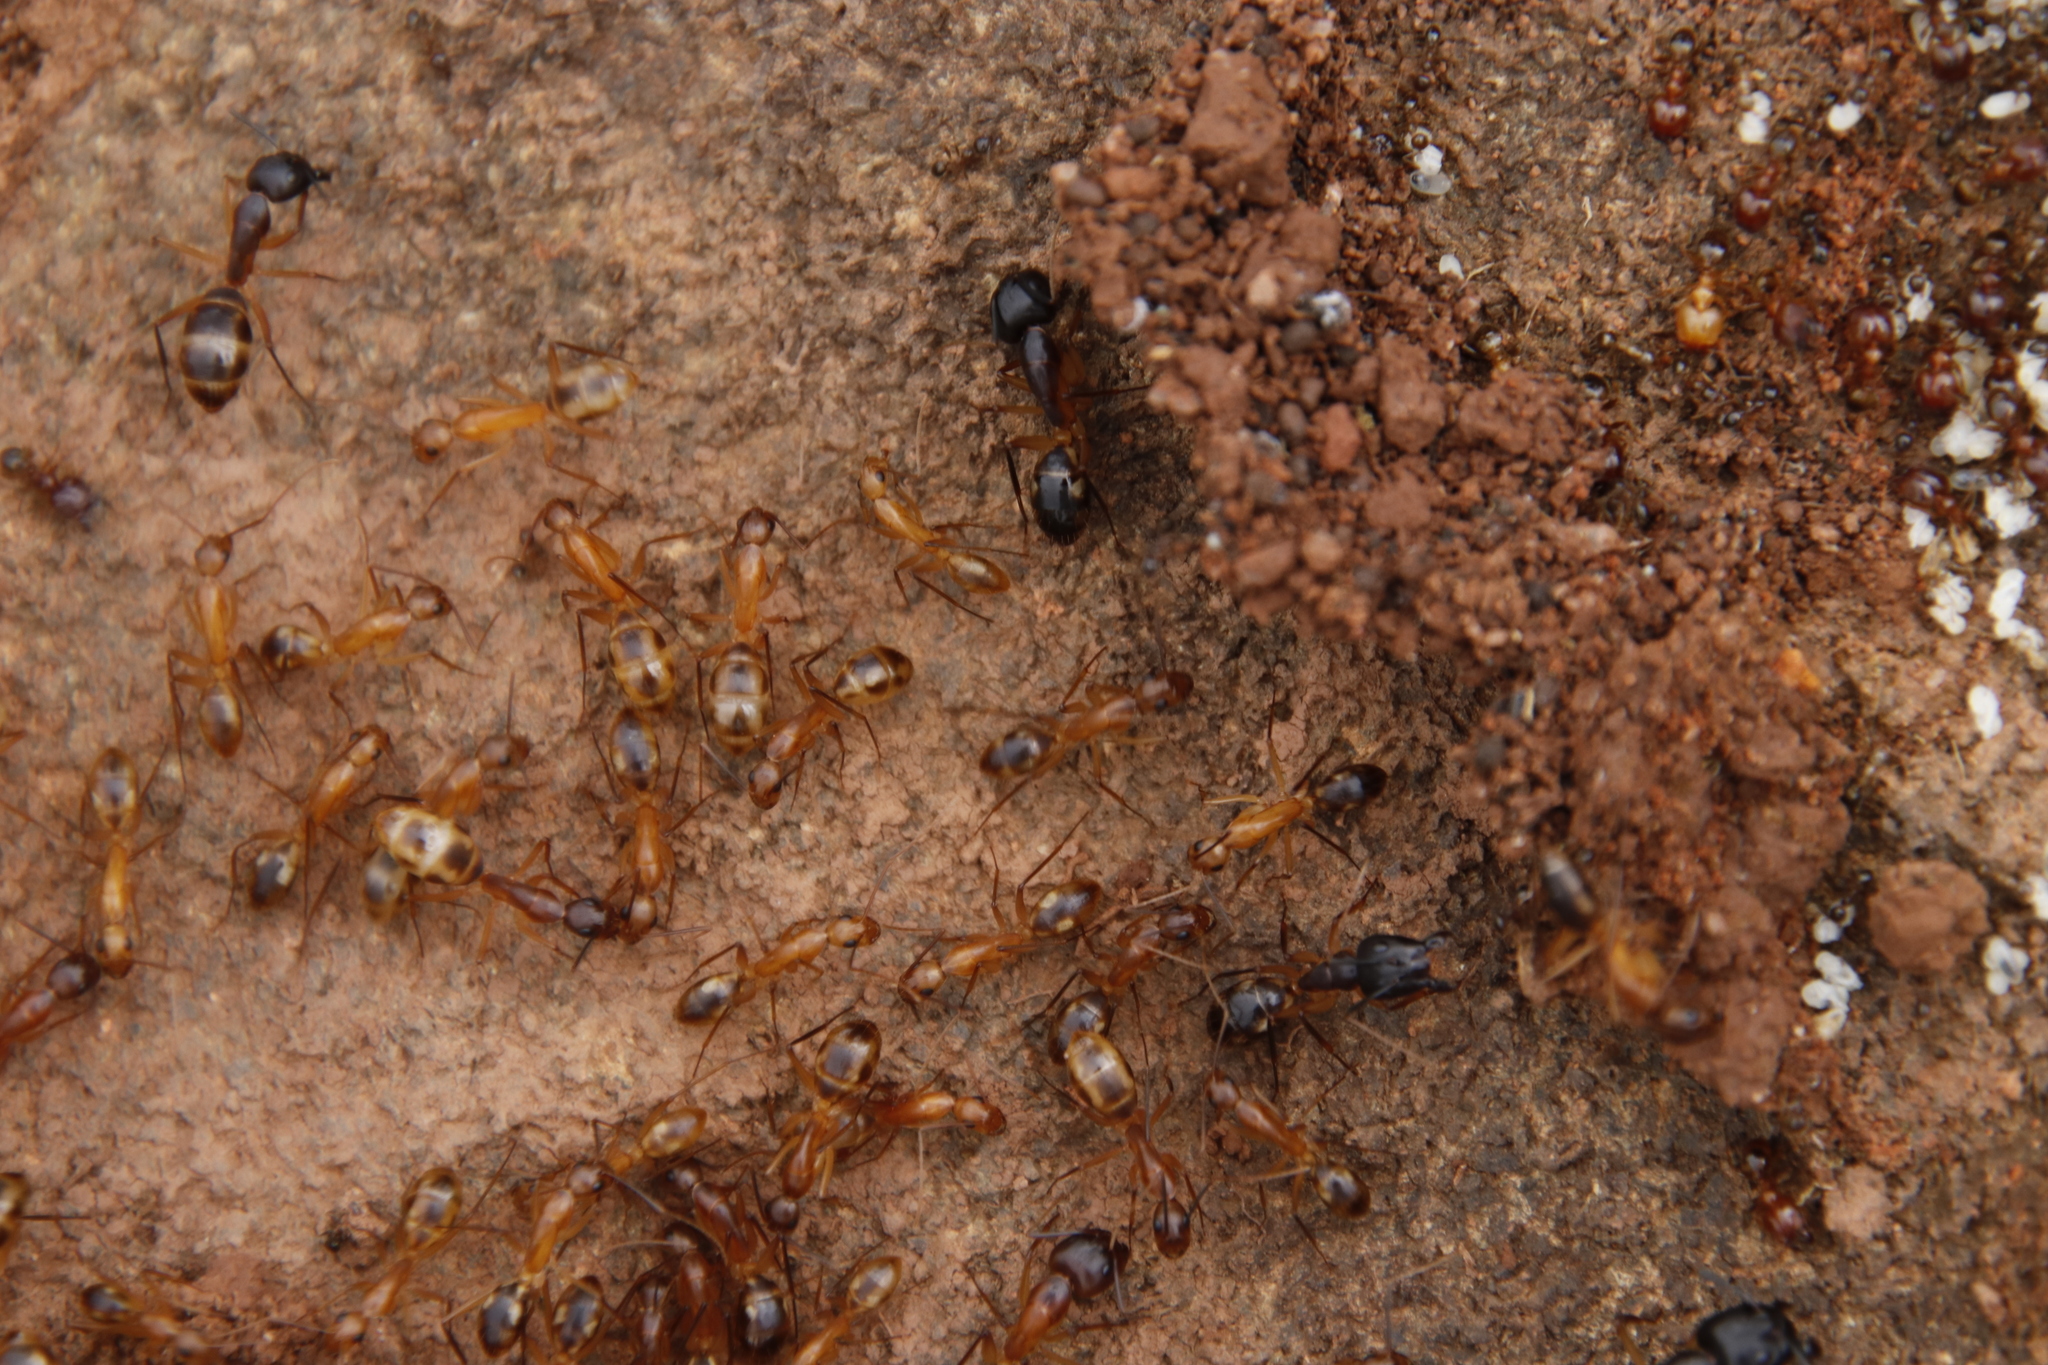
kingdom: Animalia
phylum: Arthropoda
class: Insecta
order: Hymenoptera
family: Formicidae
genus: Camponotus
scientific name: Camponotus maculatus
